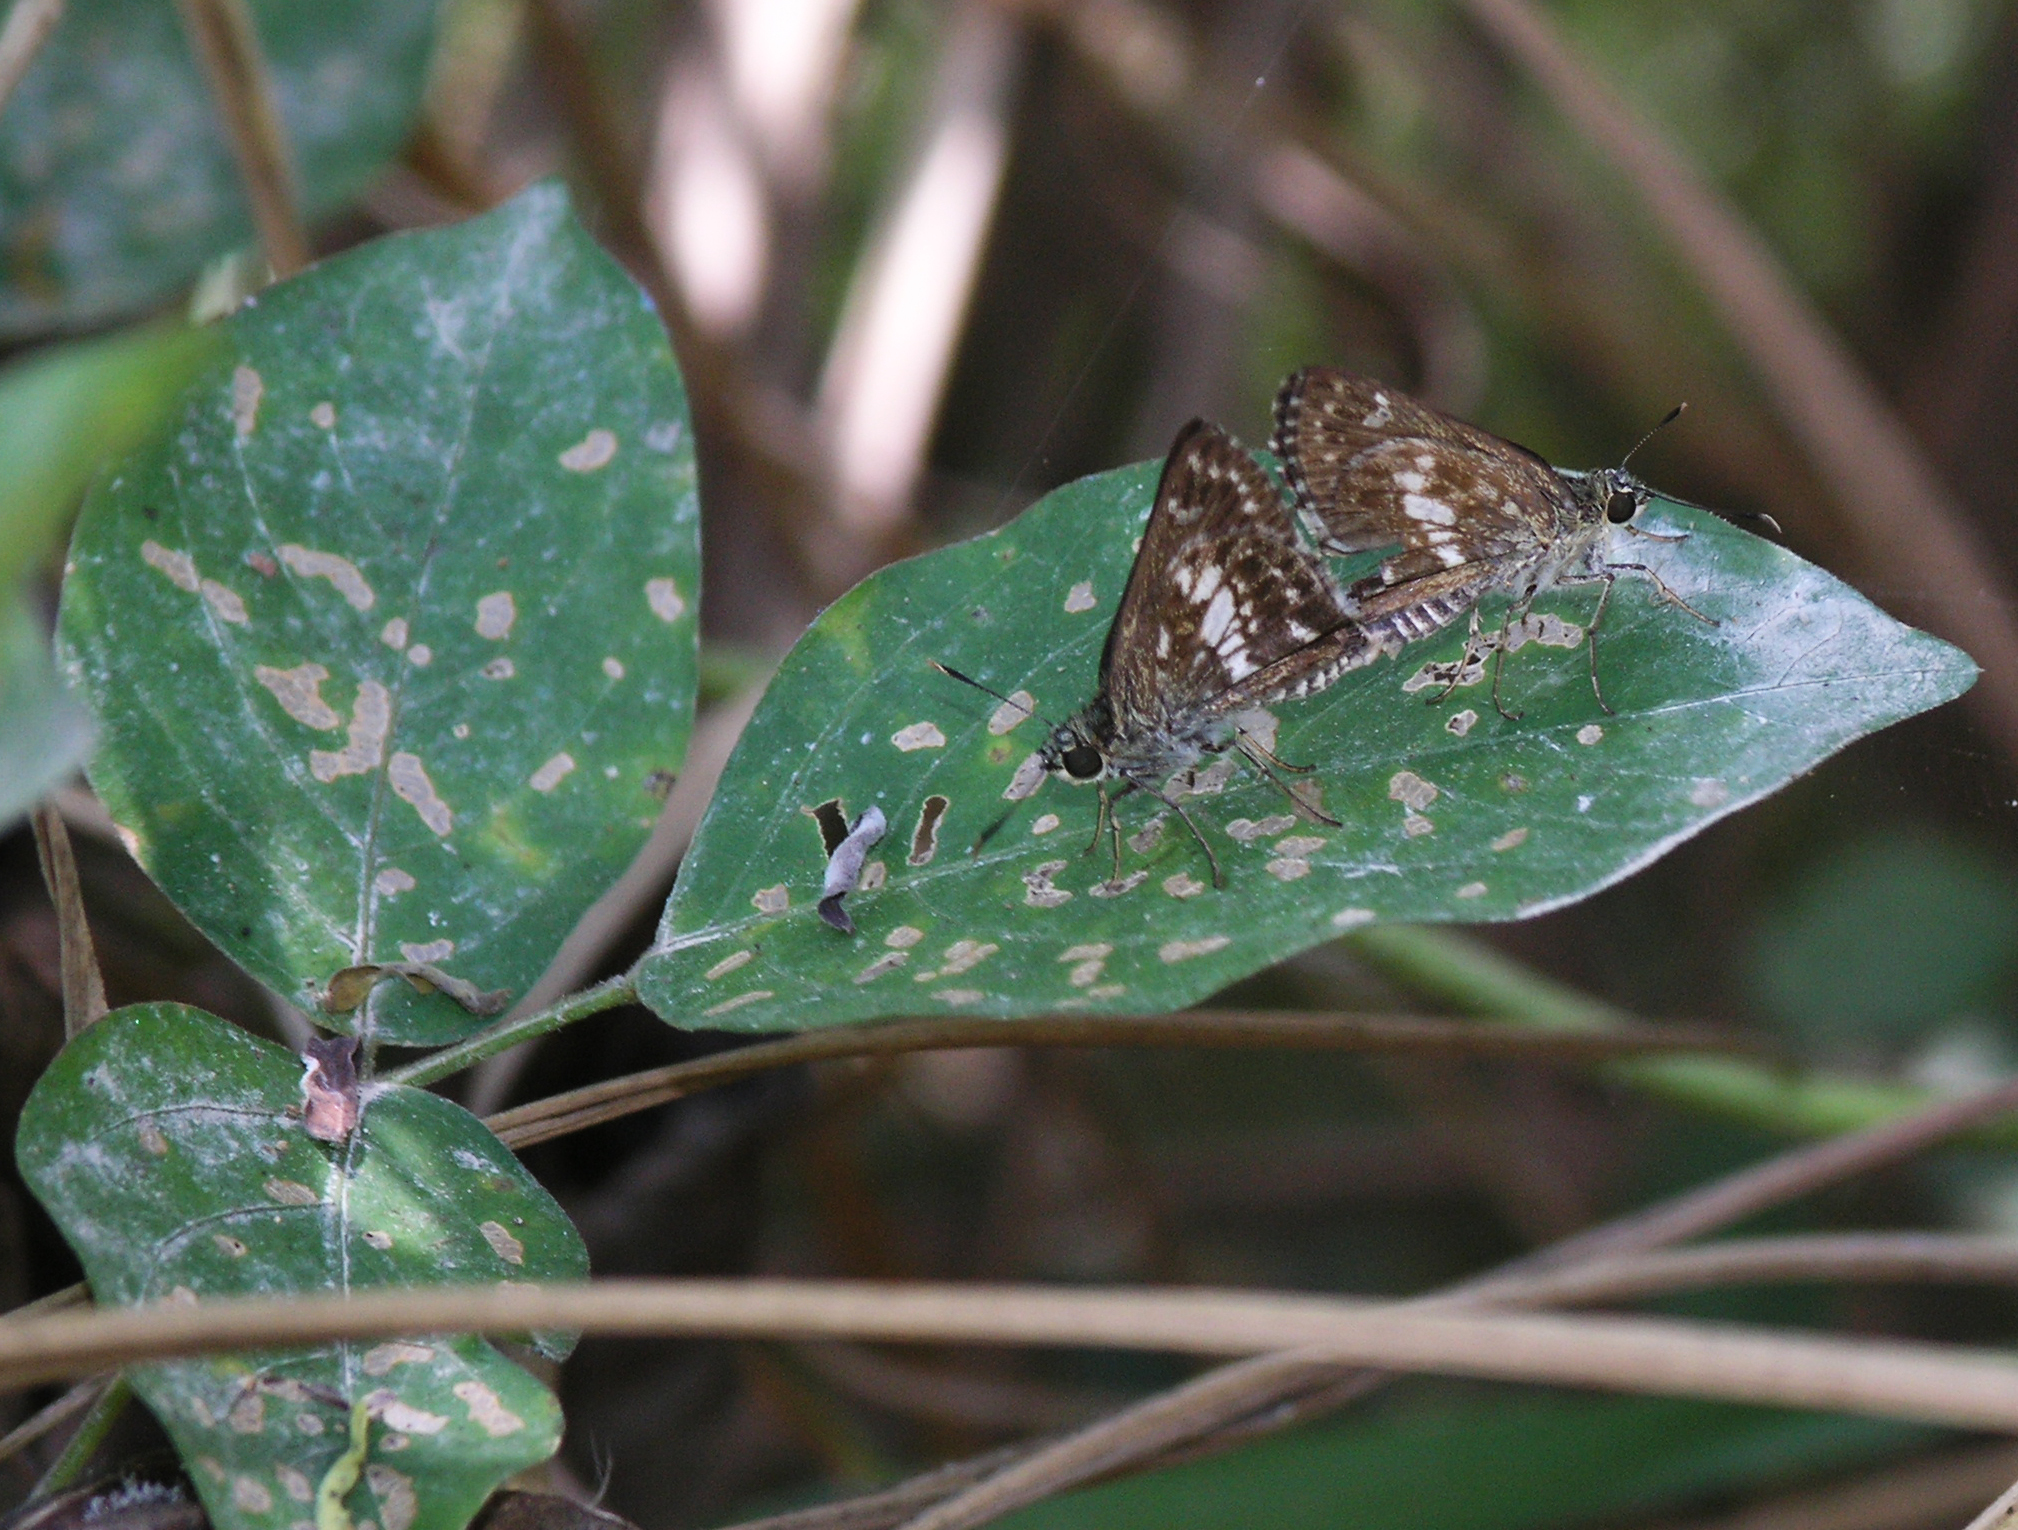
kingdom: Animalia
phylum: Arthropoda
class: Insecta
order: Lepidoptera
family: Hesperiidae
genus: Halpe
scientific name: Halpe porus
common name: Moore's ace
